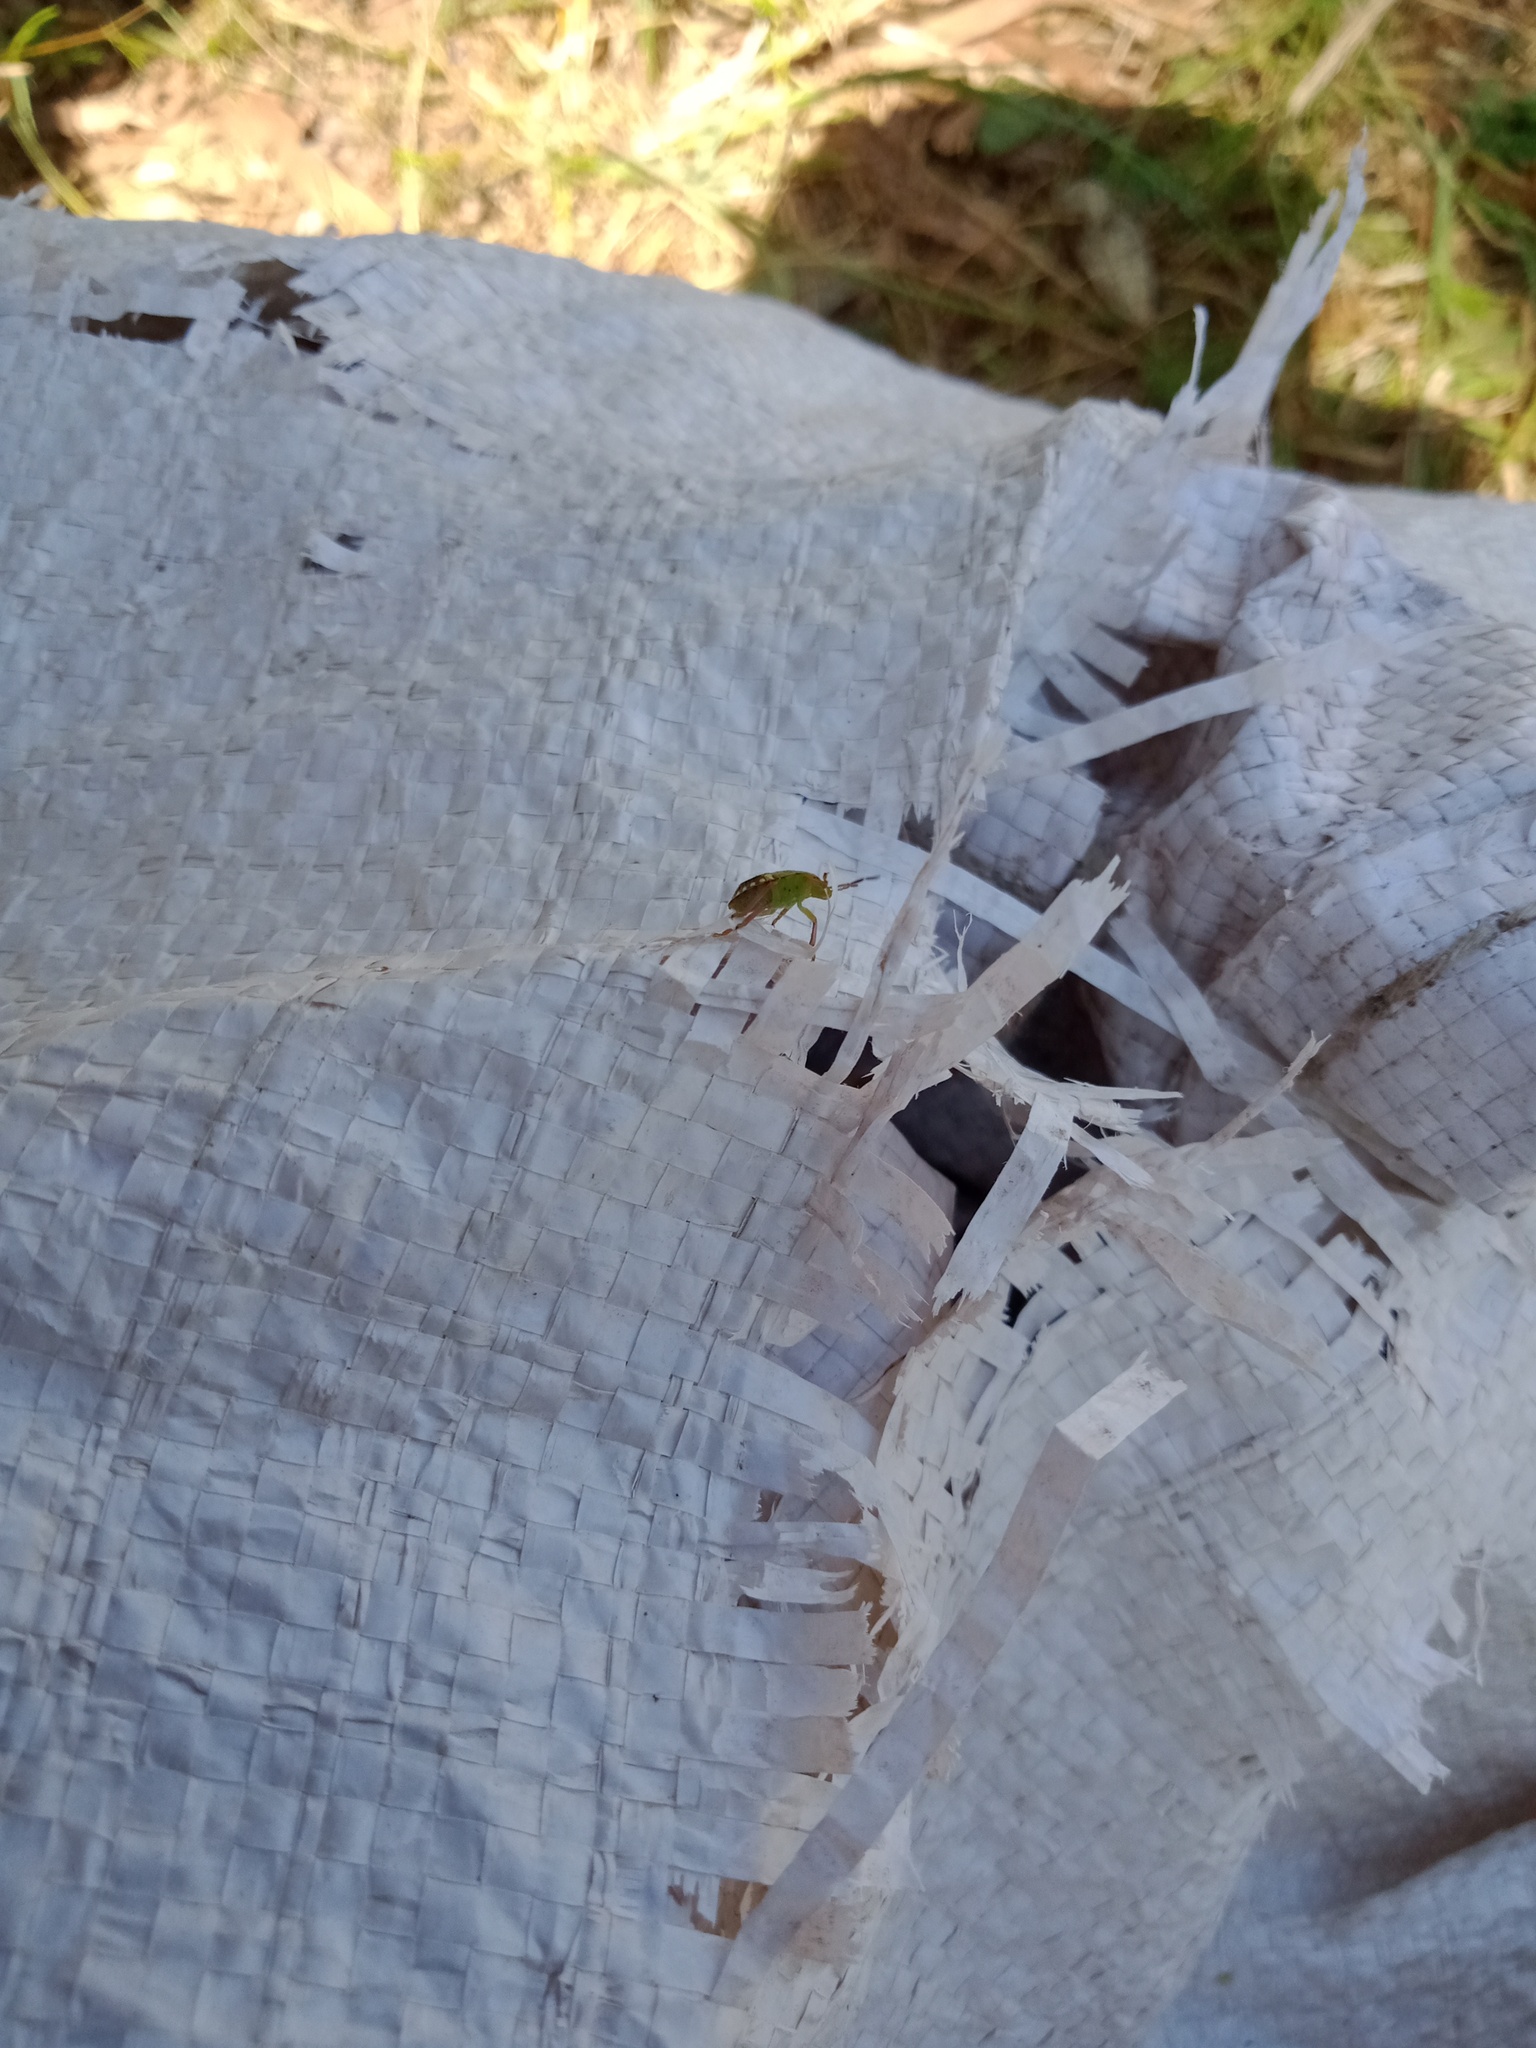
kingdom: Animalia
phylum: Arthropoda
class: Insecta
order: Hemiptera
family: Pentatomidae
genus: Nezara
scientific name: Nezara viridula
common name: Southern green stink bug
